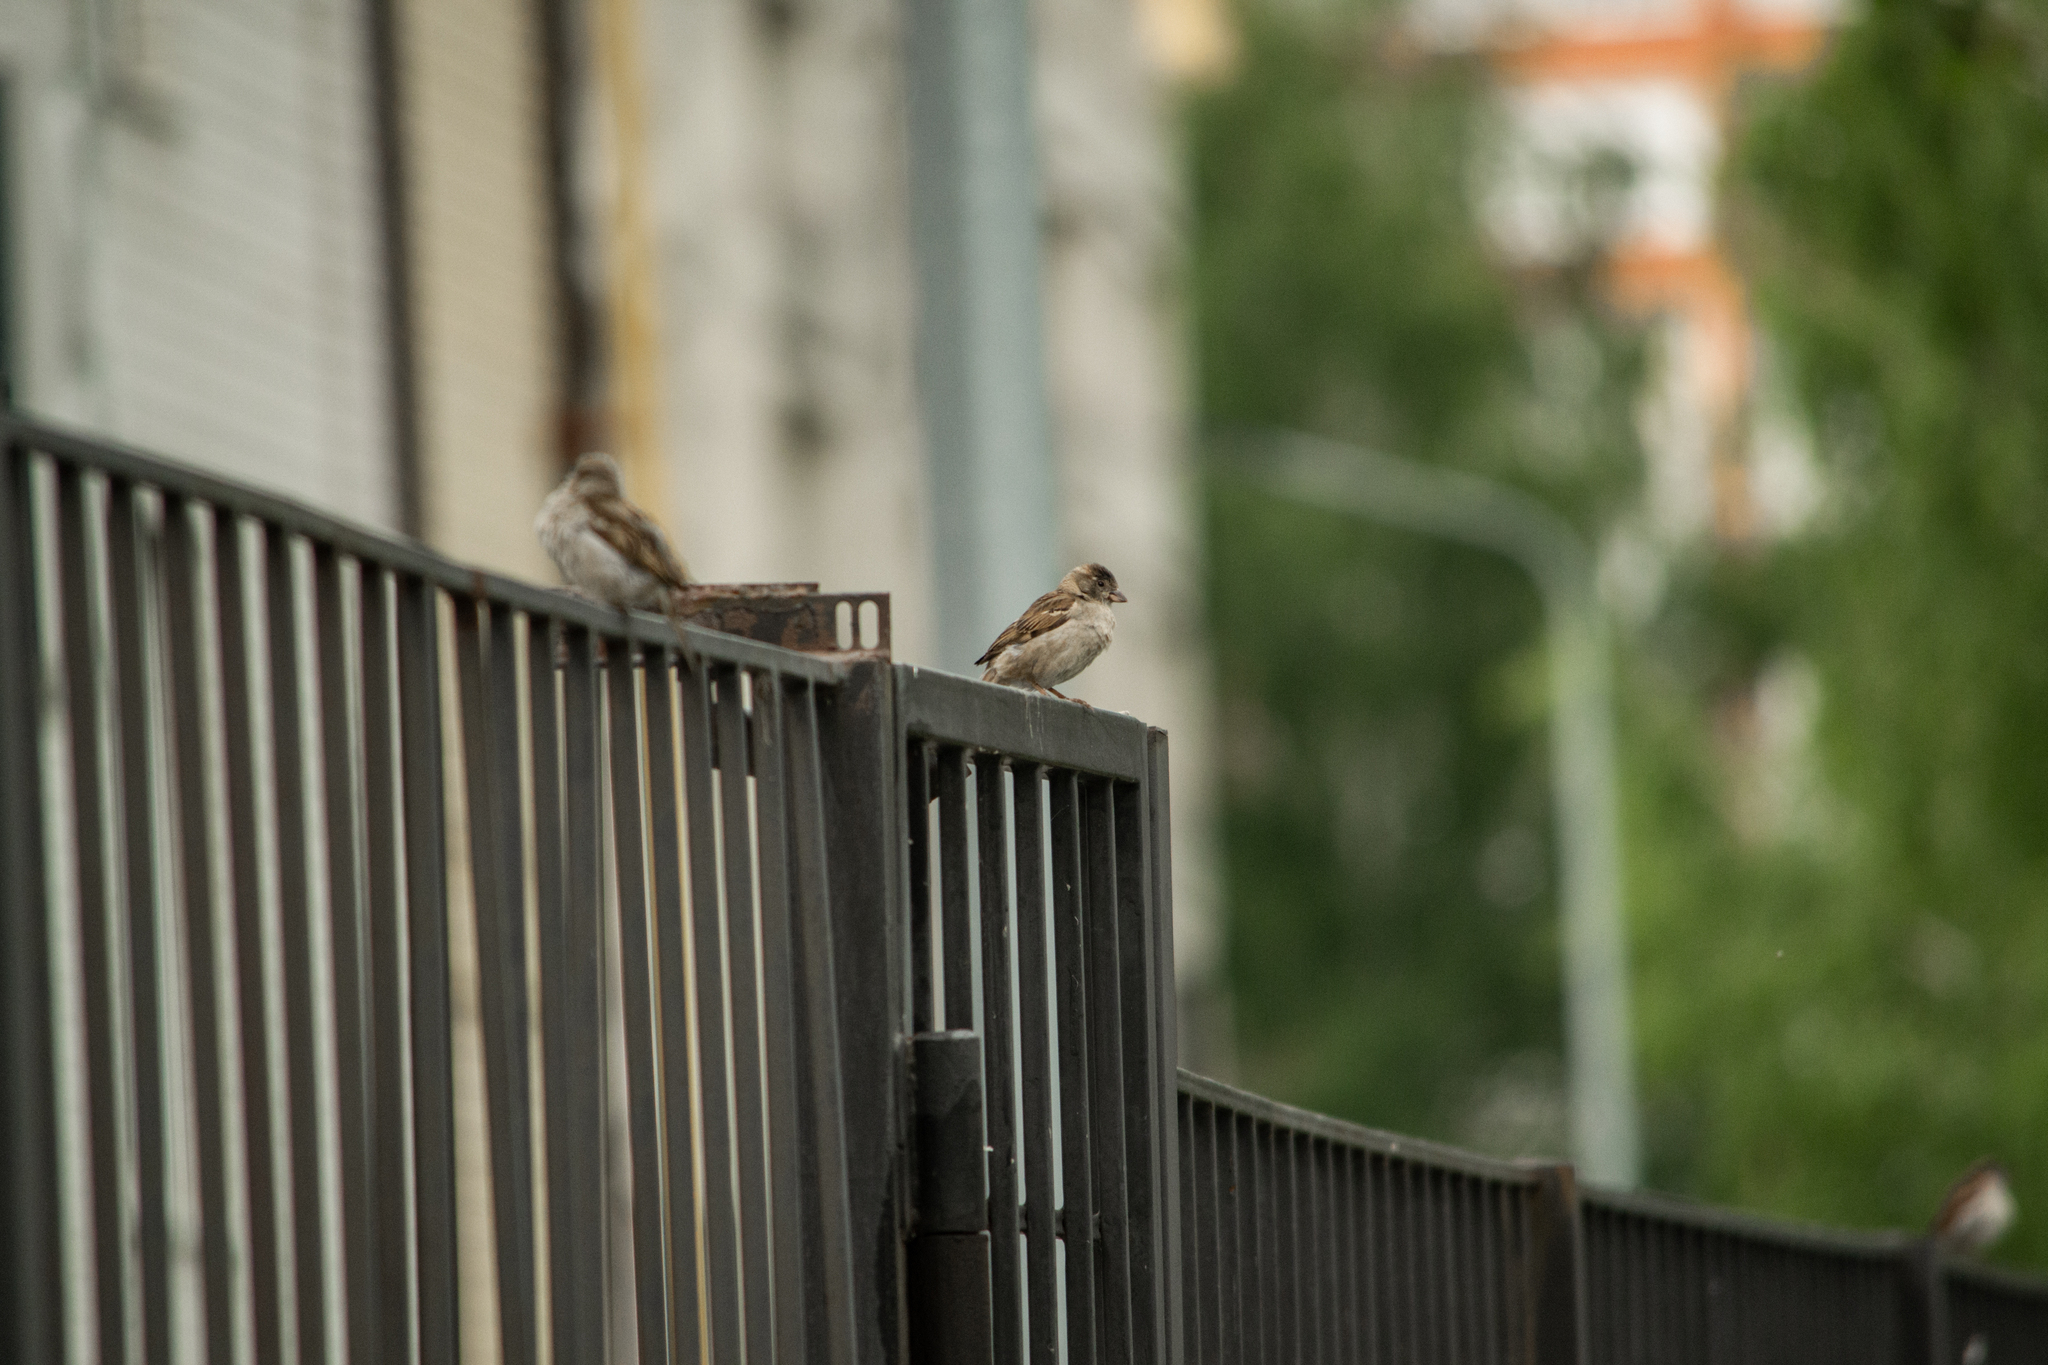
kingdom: Animalia
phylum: Chordata
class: Aves
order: Passeriformes
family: Passeridae
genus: Passer
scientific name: Passer domesticus
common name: House sparrow
